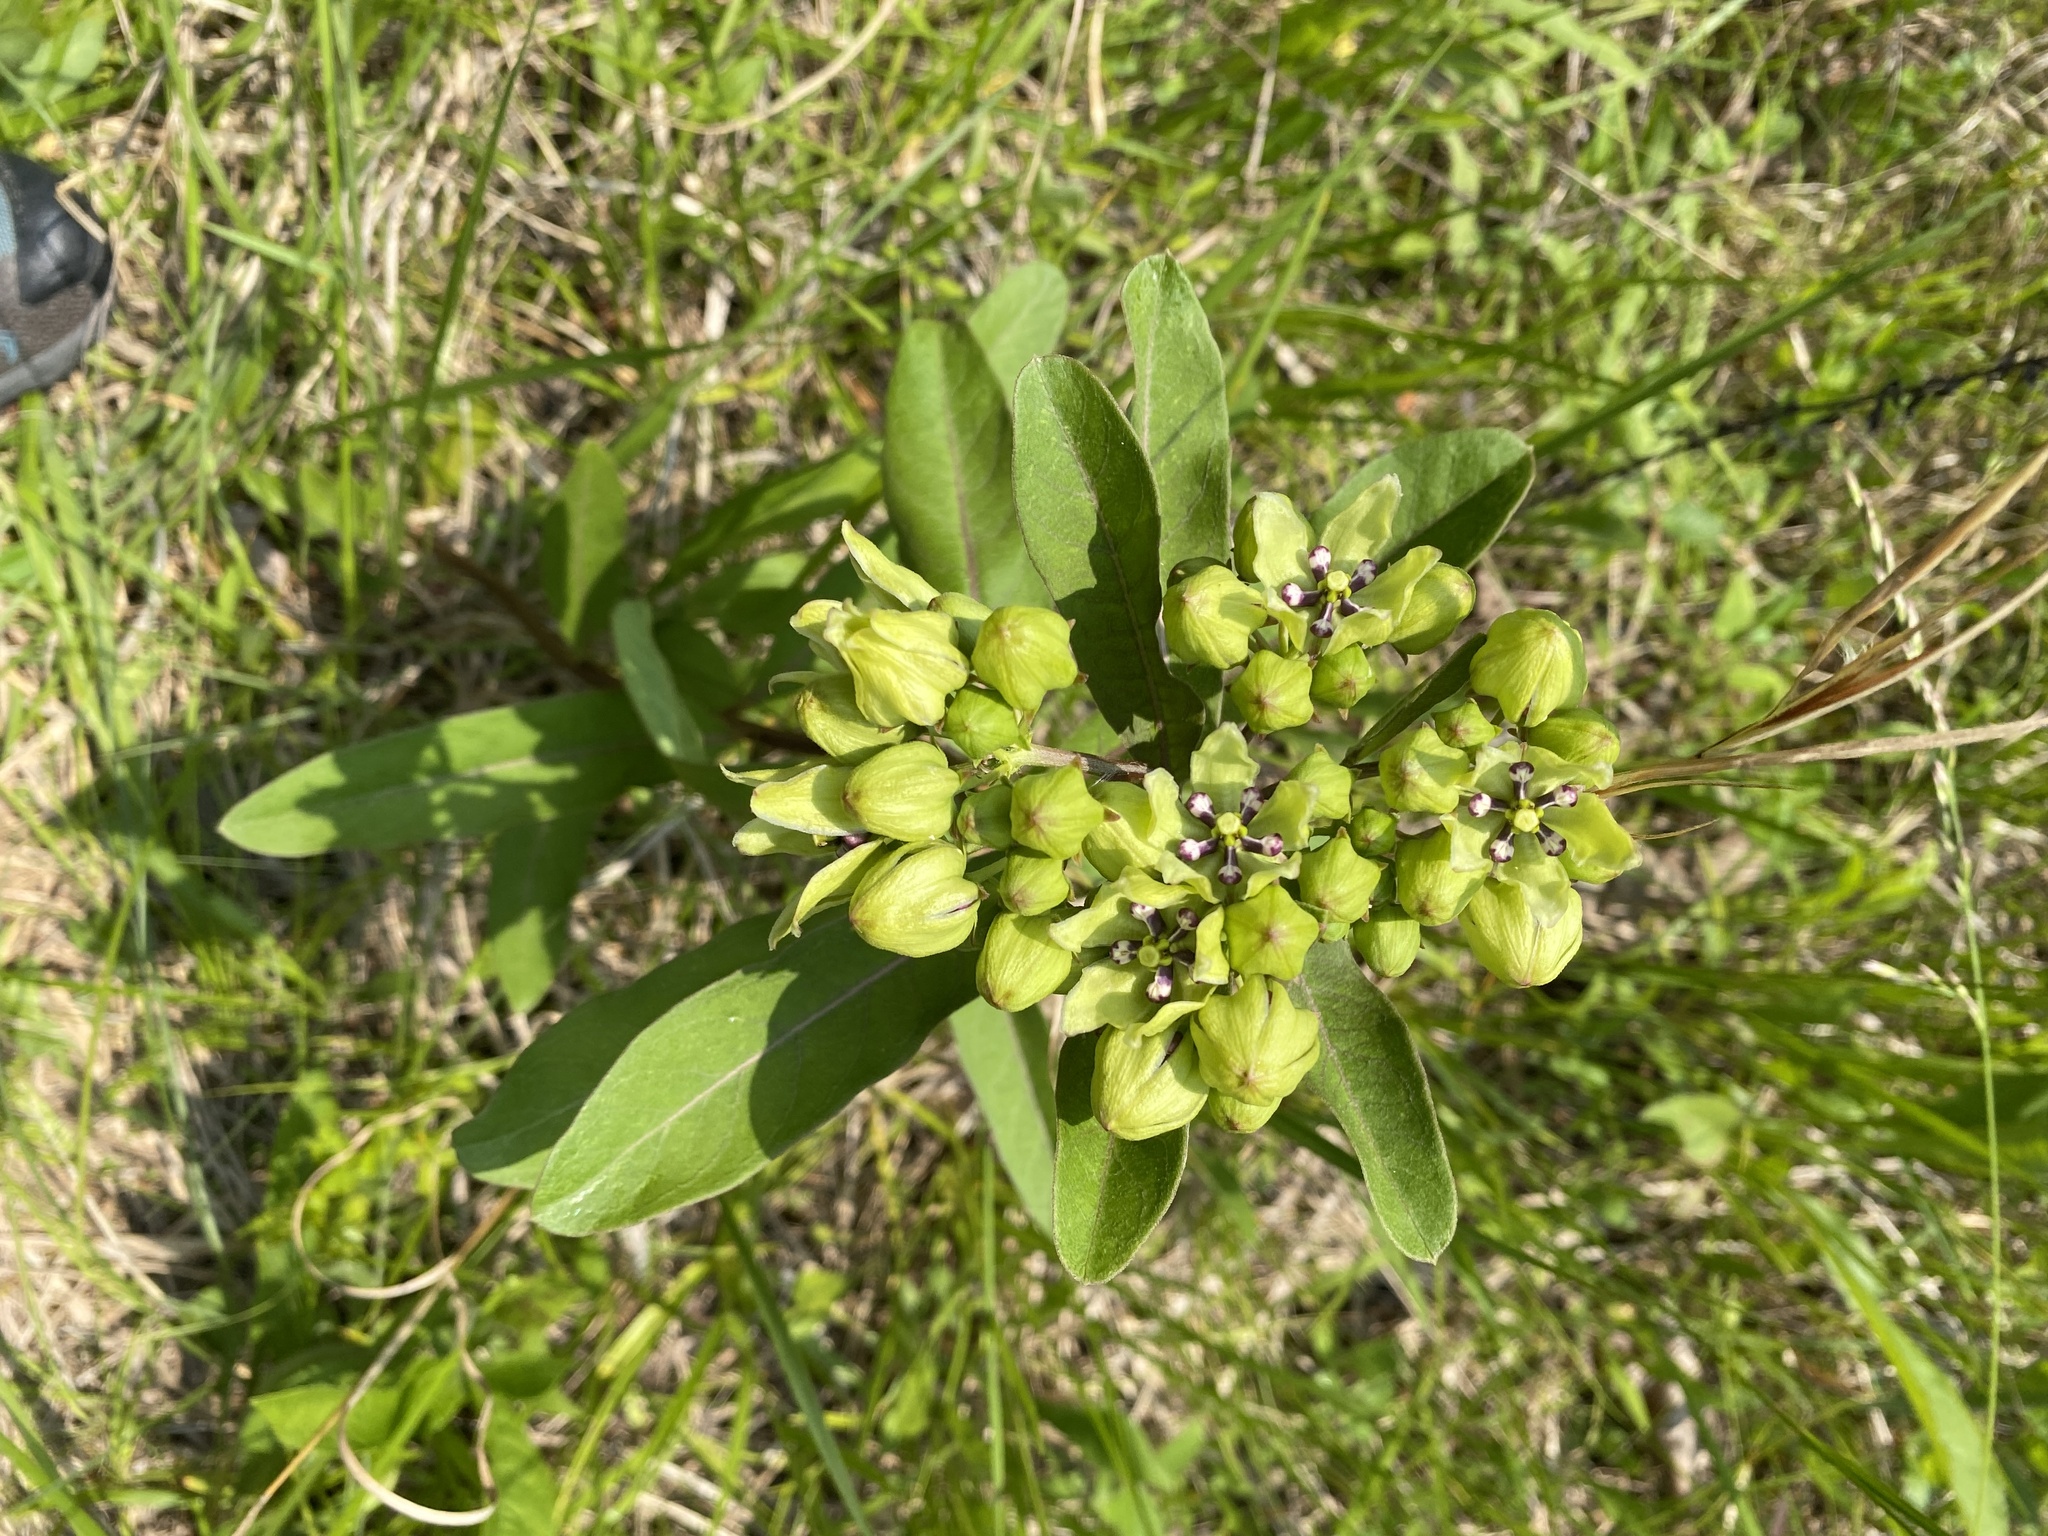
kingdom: Plantae
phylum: Tracheophyta
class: Magnoliopsida
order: Gentianales
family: Apocynaceae
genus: Asclepias
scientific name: Asclepias viridis
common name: Antelope-horns
